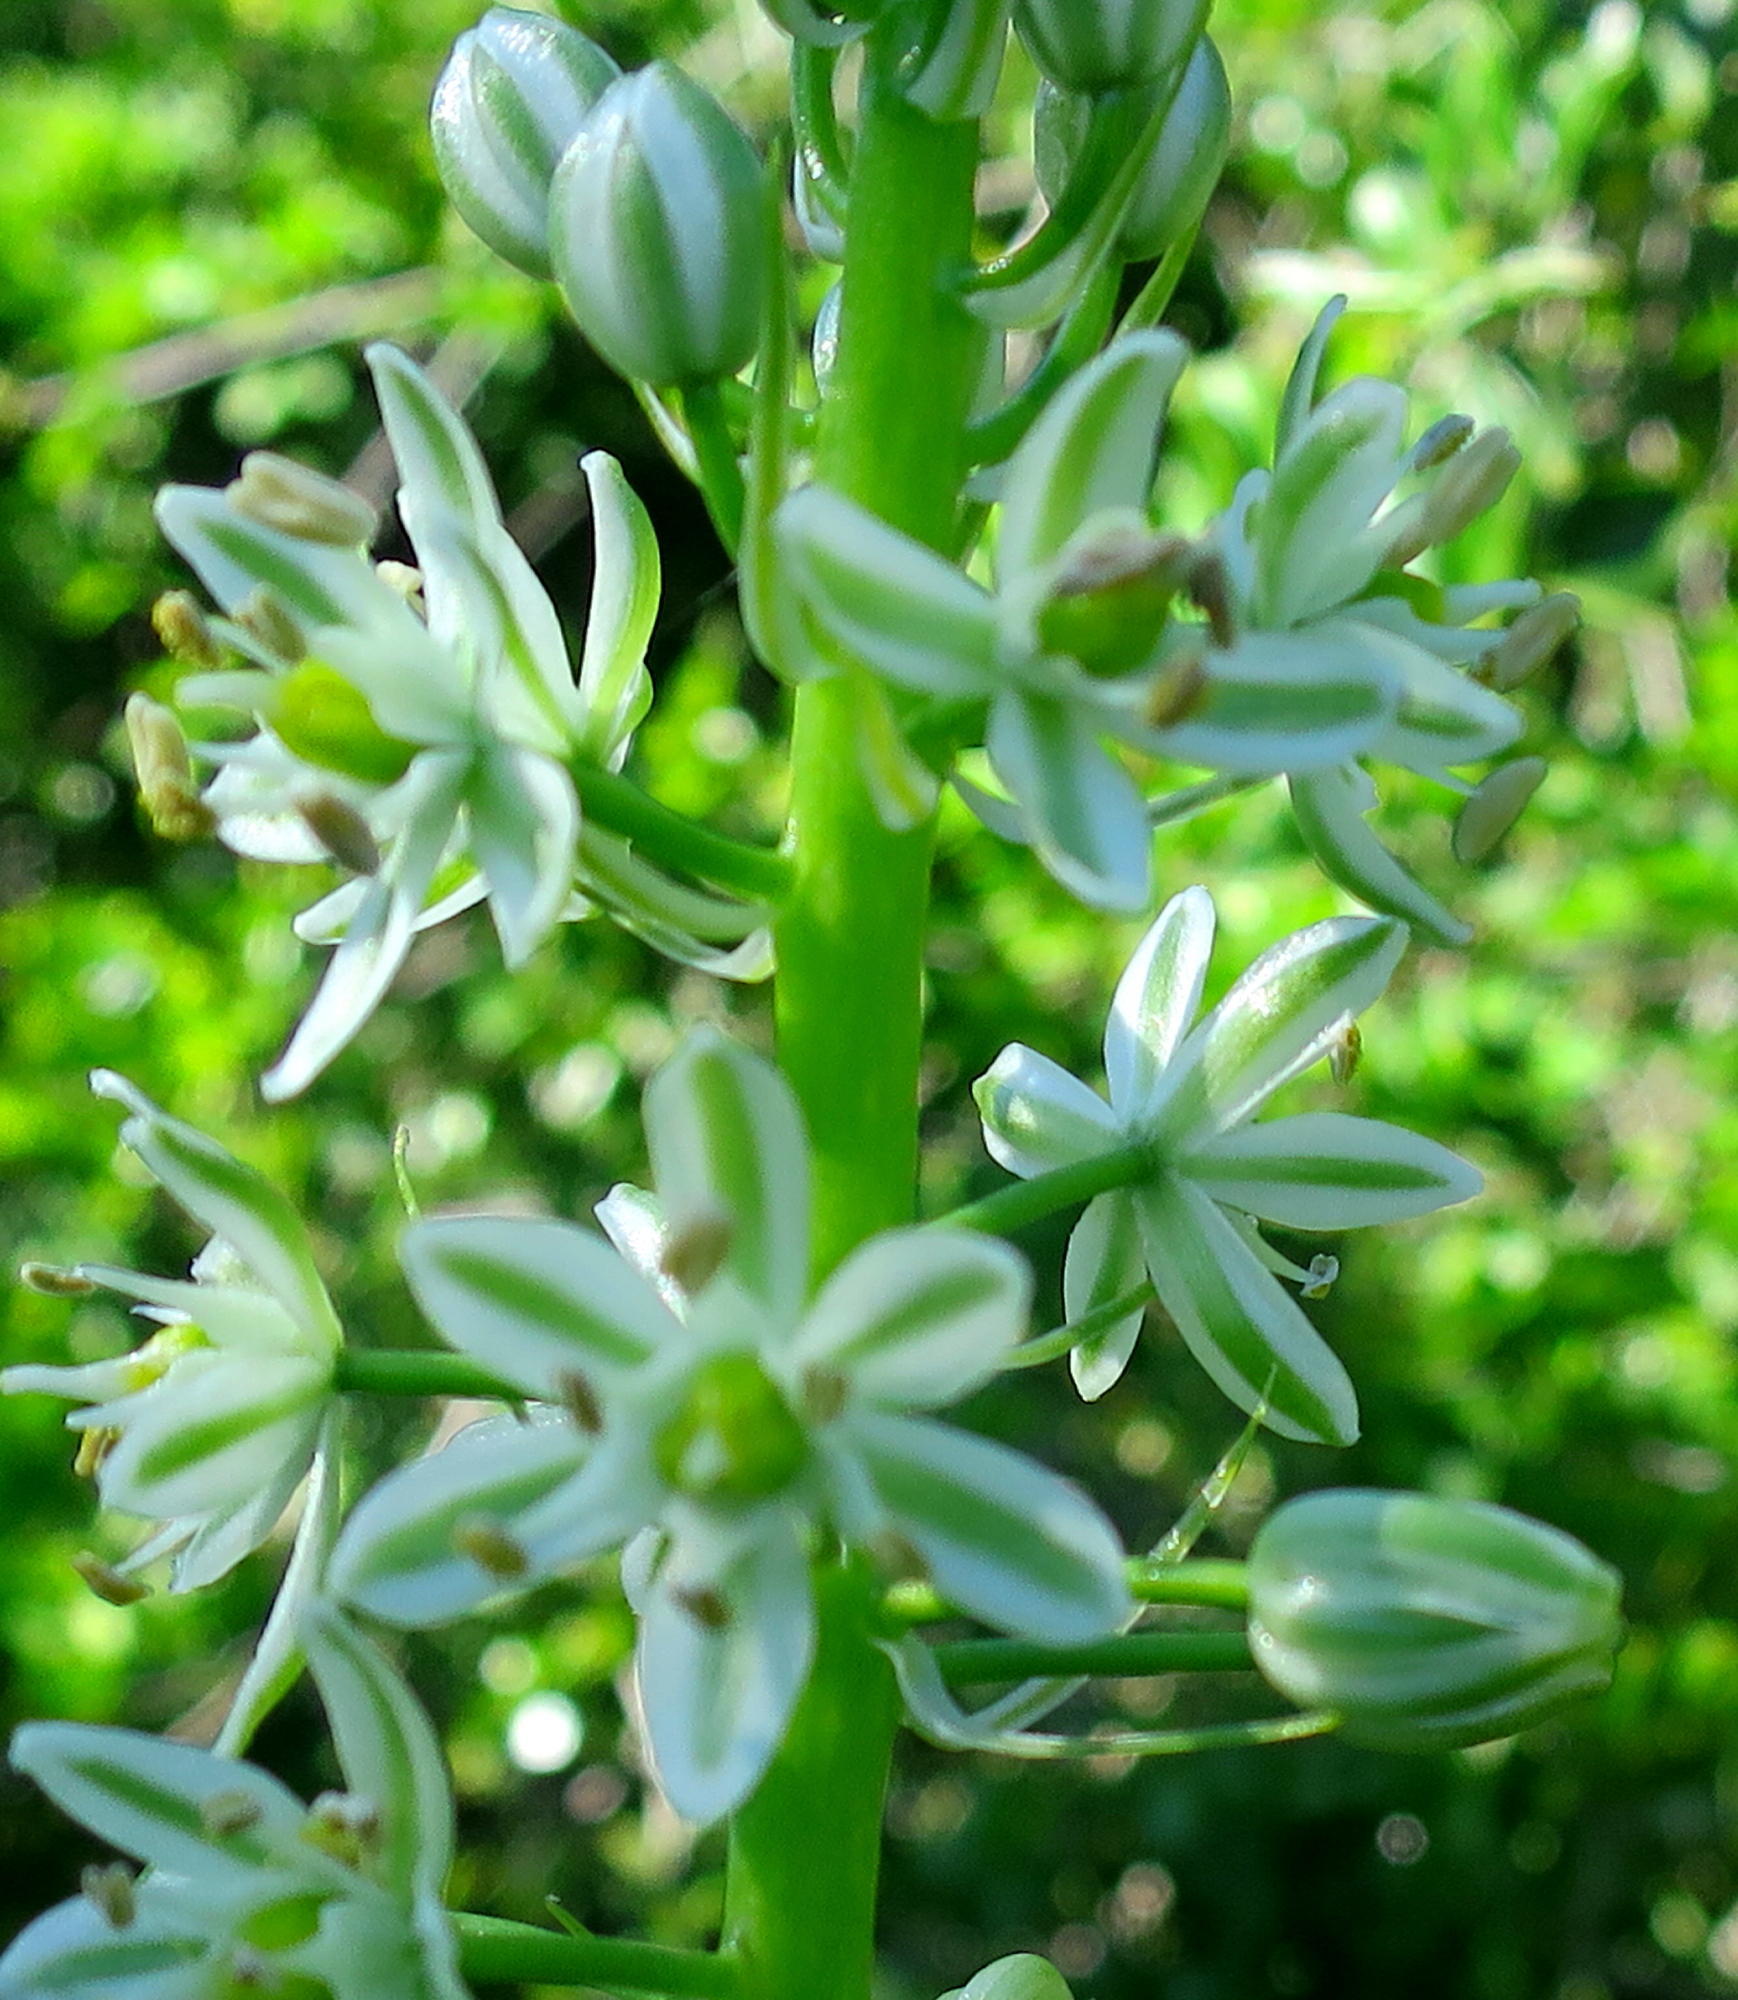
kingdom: Plantae
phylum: Tracheophyta
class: Liliopsida
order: Asparagales
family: Asparagaceae
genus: Albuca
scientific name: Albuca bracteata
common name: Sea-onion
